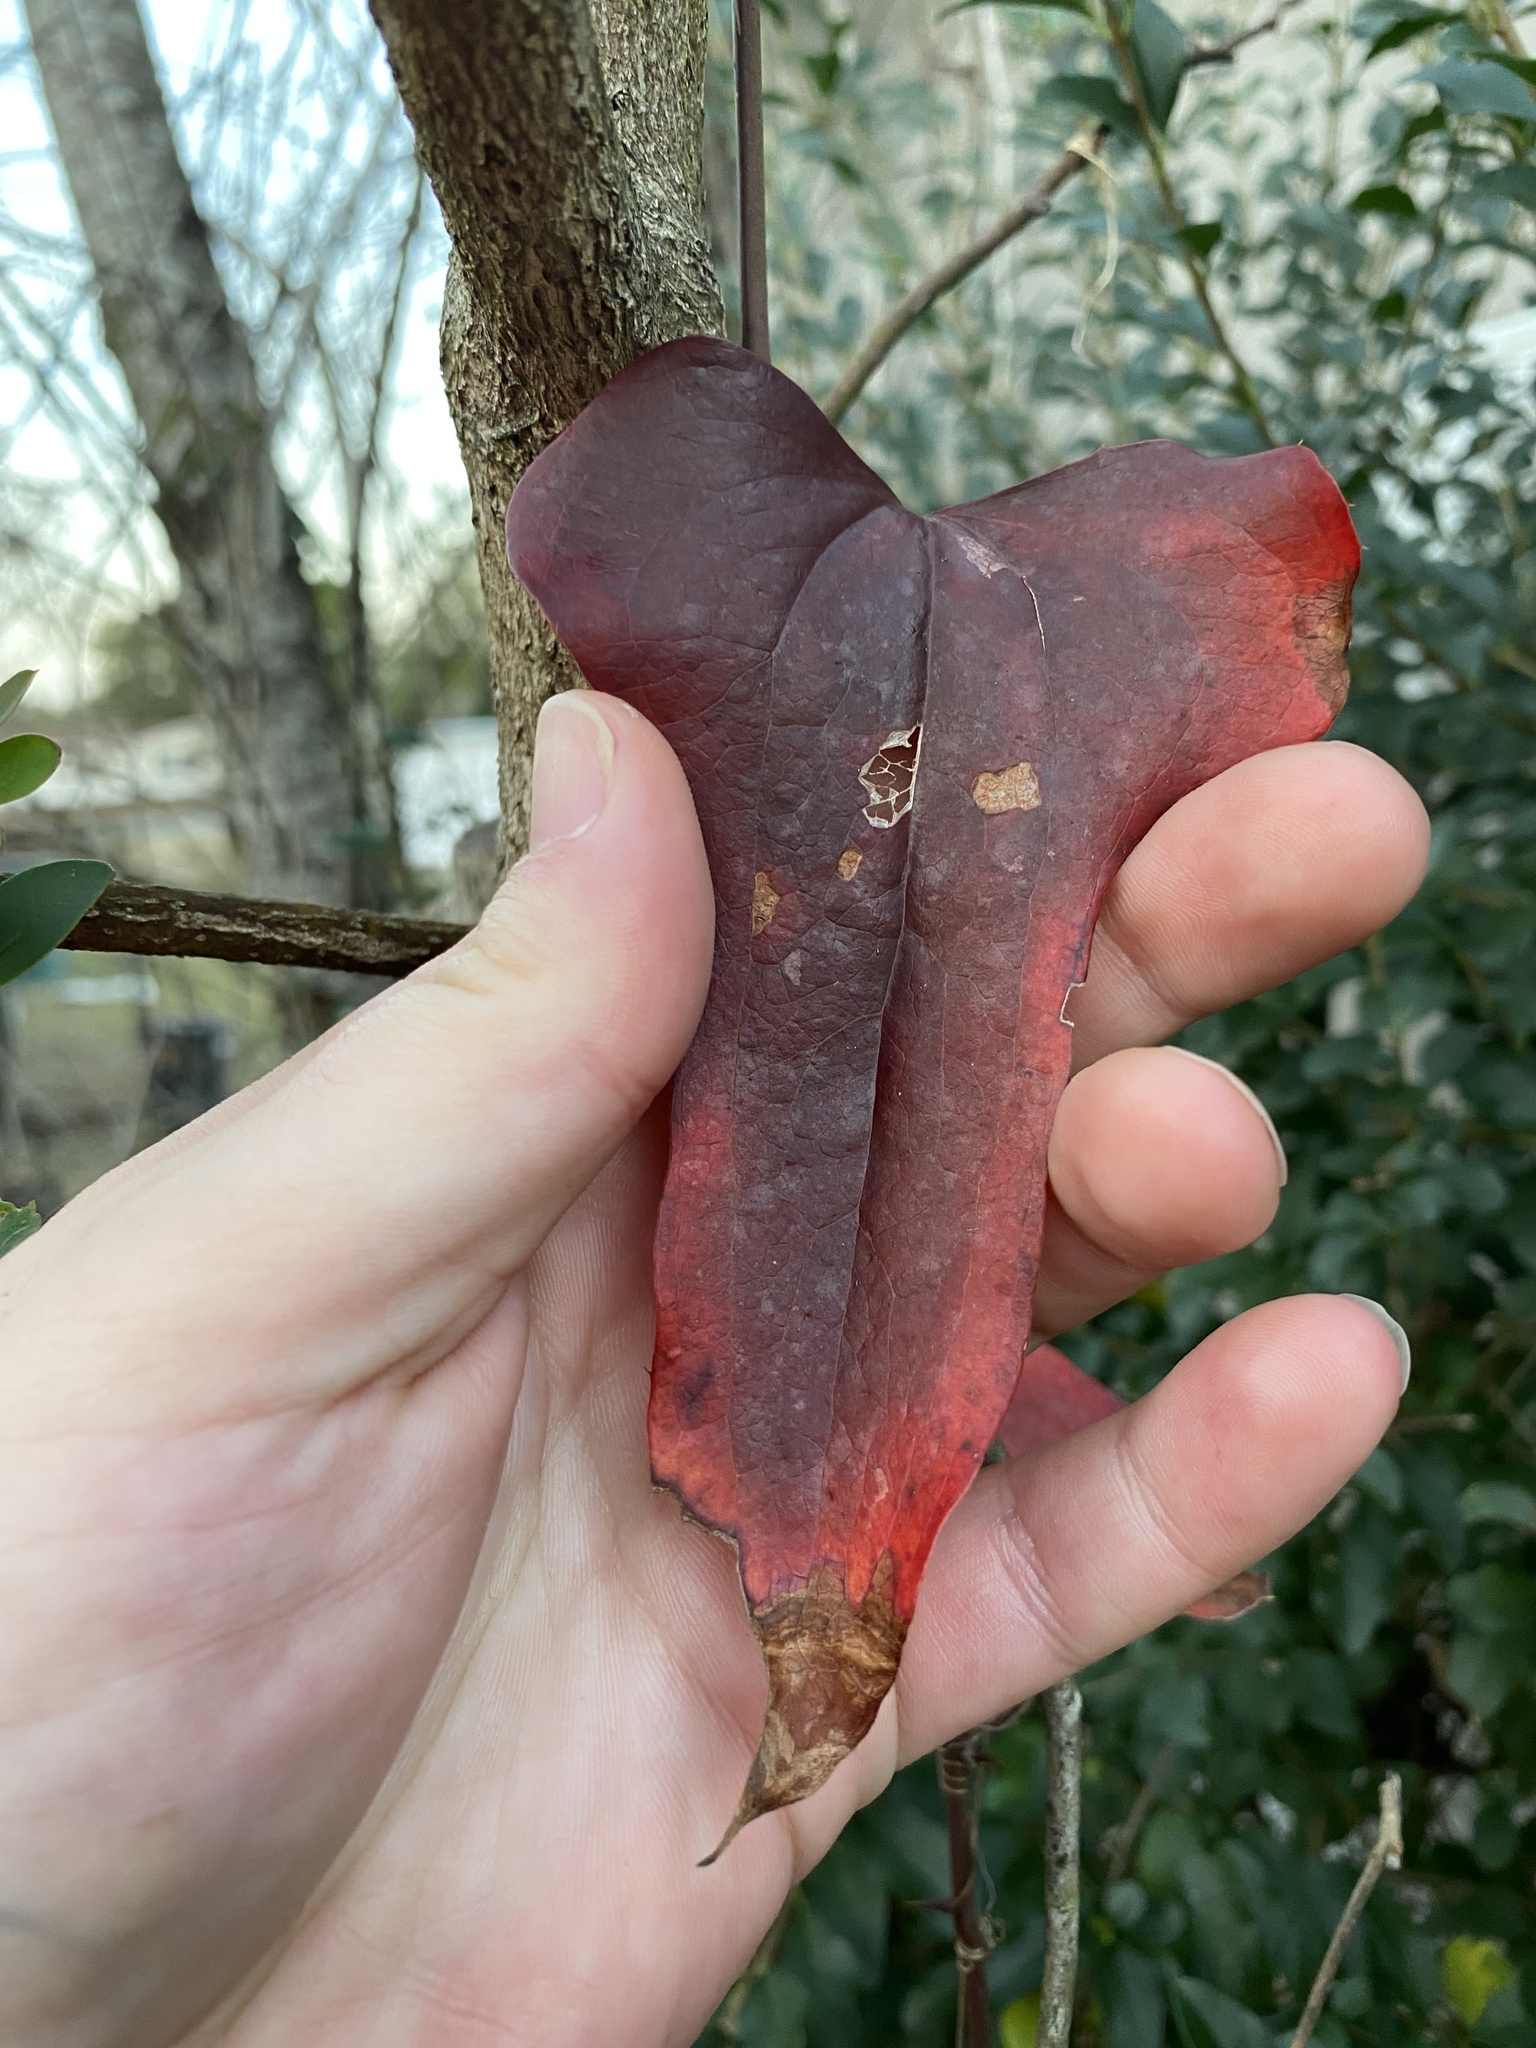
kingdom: Plantae
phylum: Tracheophyta
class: Liliopsida
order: Liliales
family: Smilacaceae
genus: Smilax
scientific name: Smilax bona-nox
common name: Catbrier
